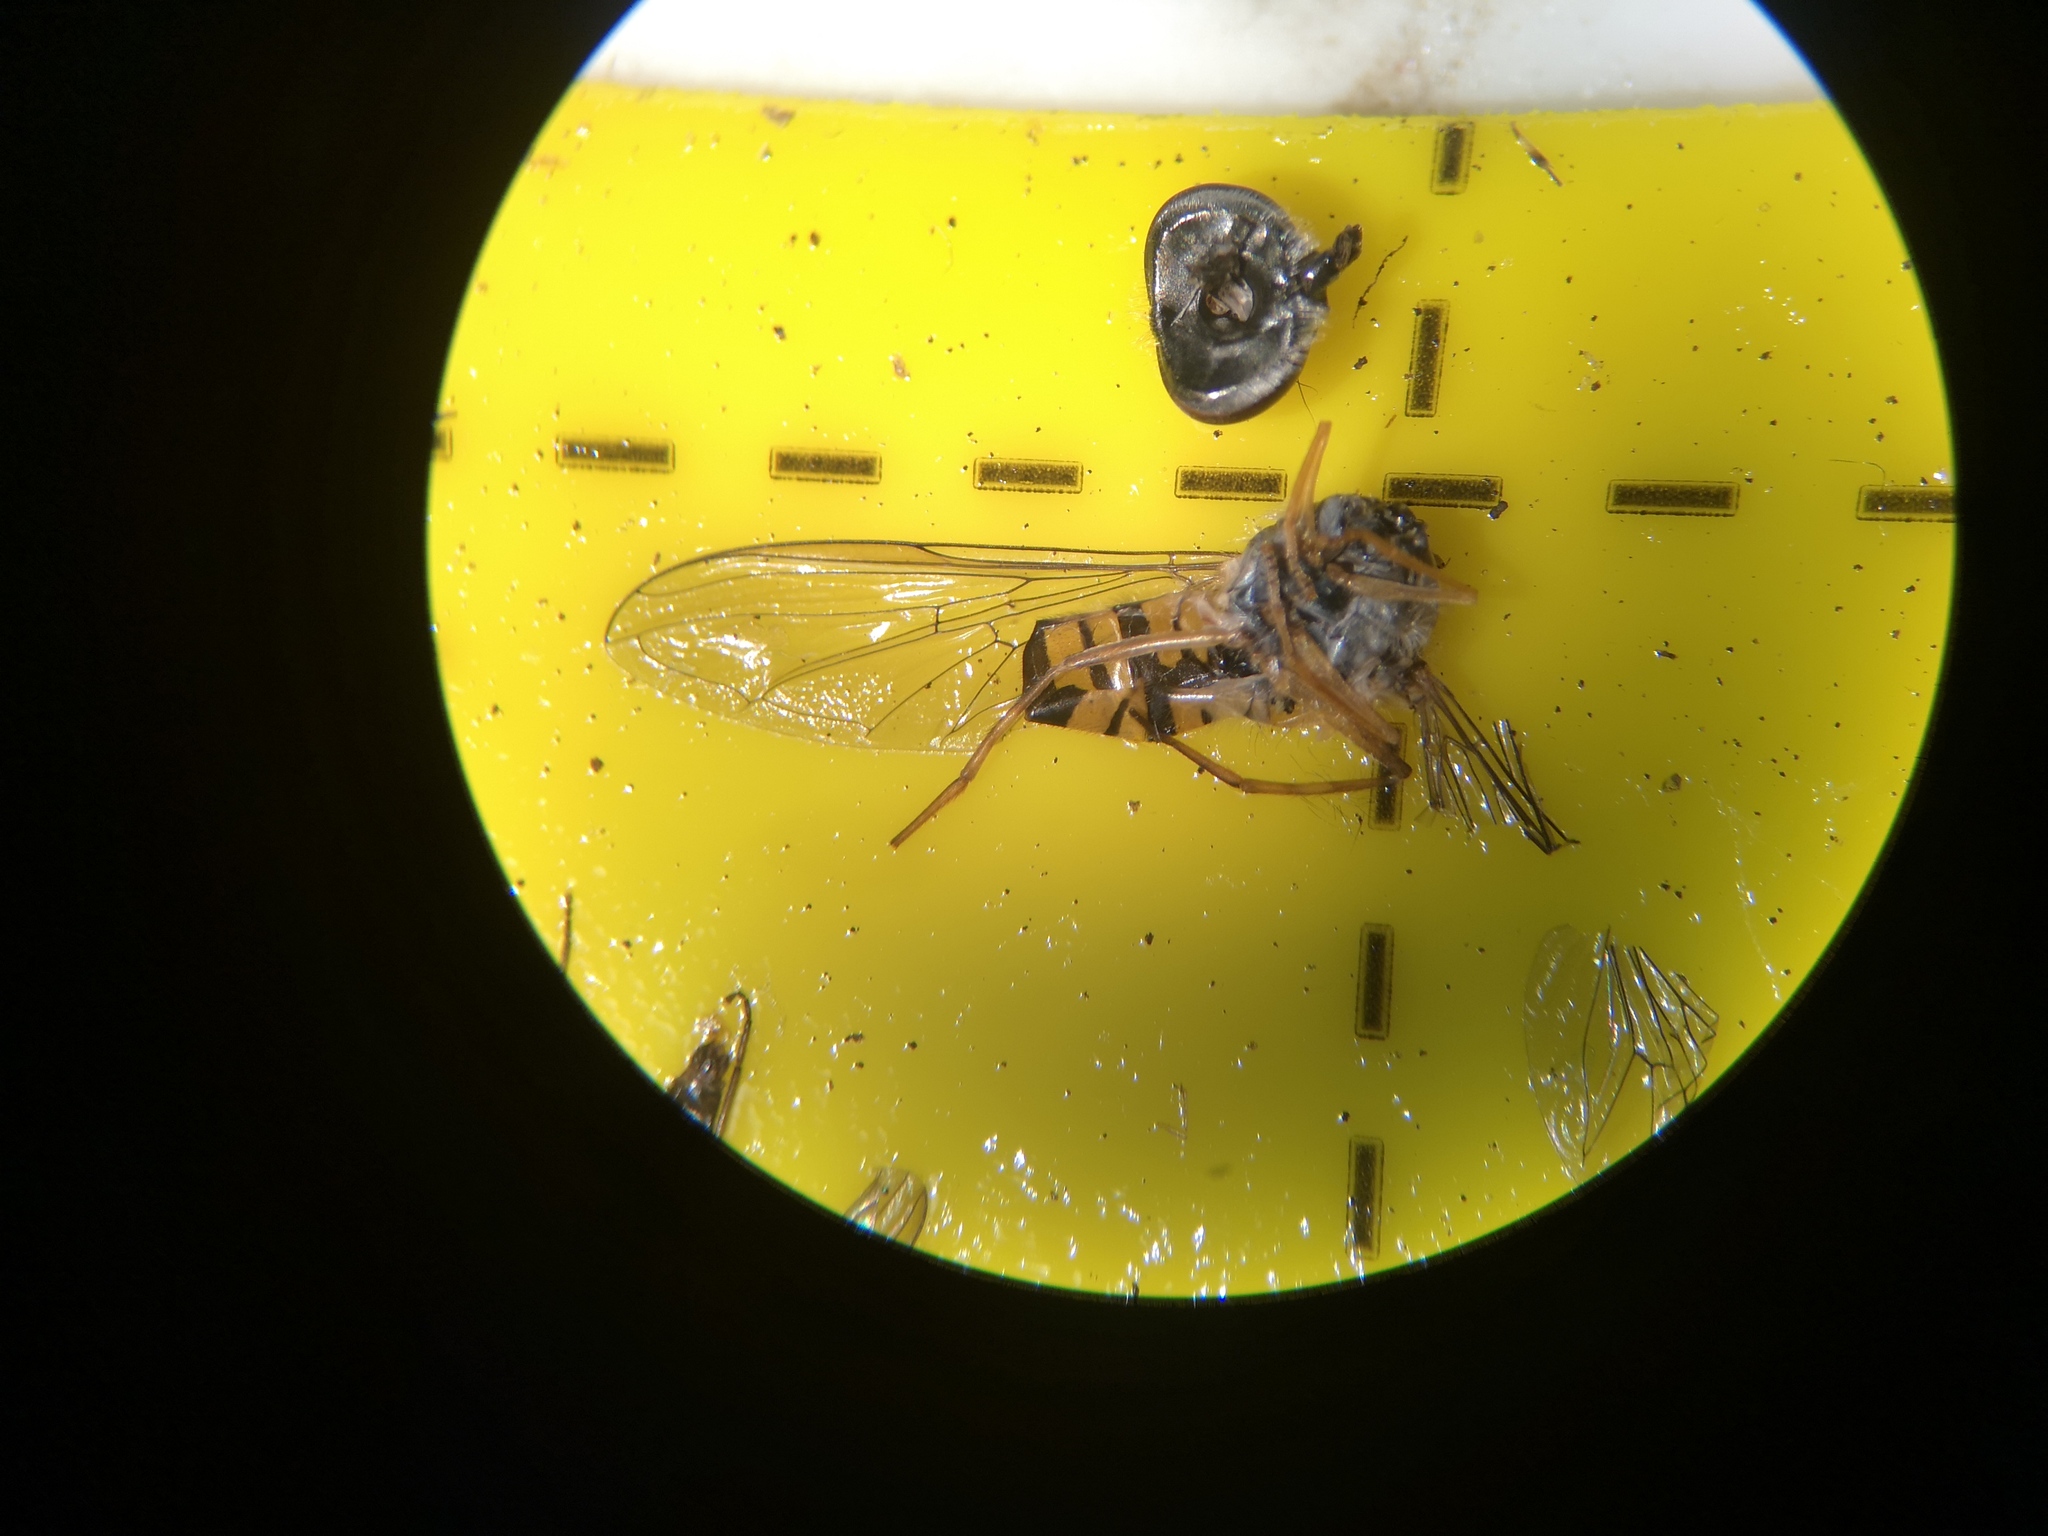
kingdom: Animalia
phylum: Arthropoda
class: Insecta
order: Diptera
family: Syrphidae
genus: Episyrphus
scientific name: Episyrphus balteatus
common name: Marmalade hoverfly
